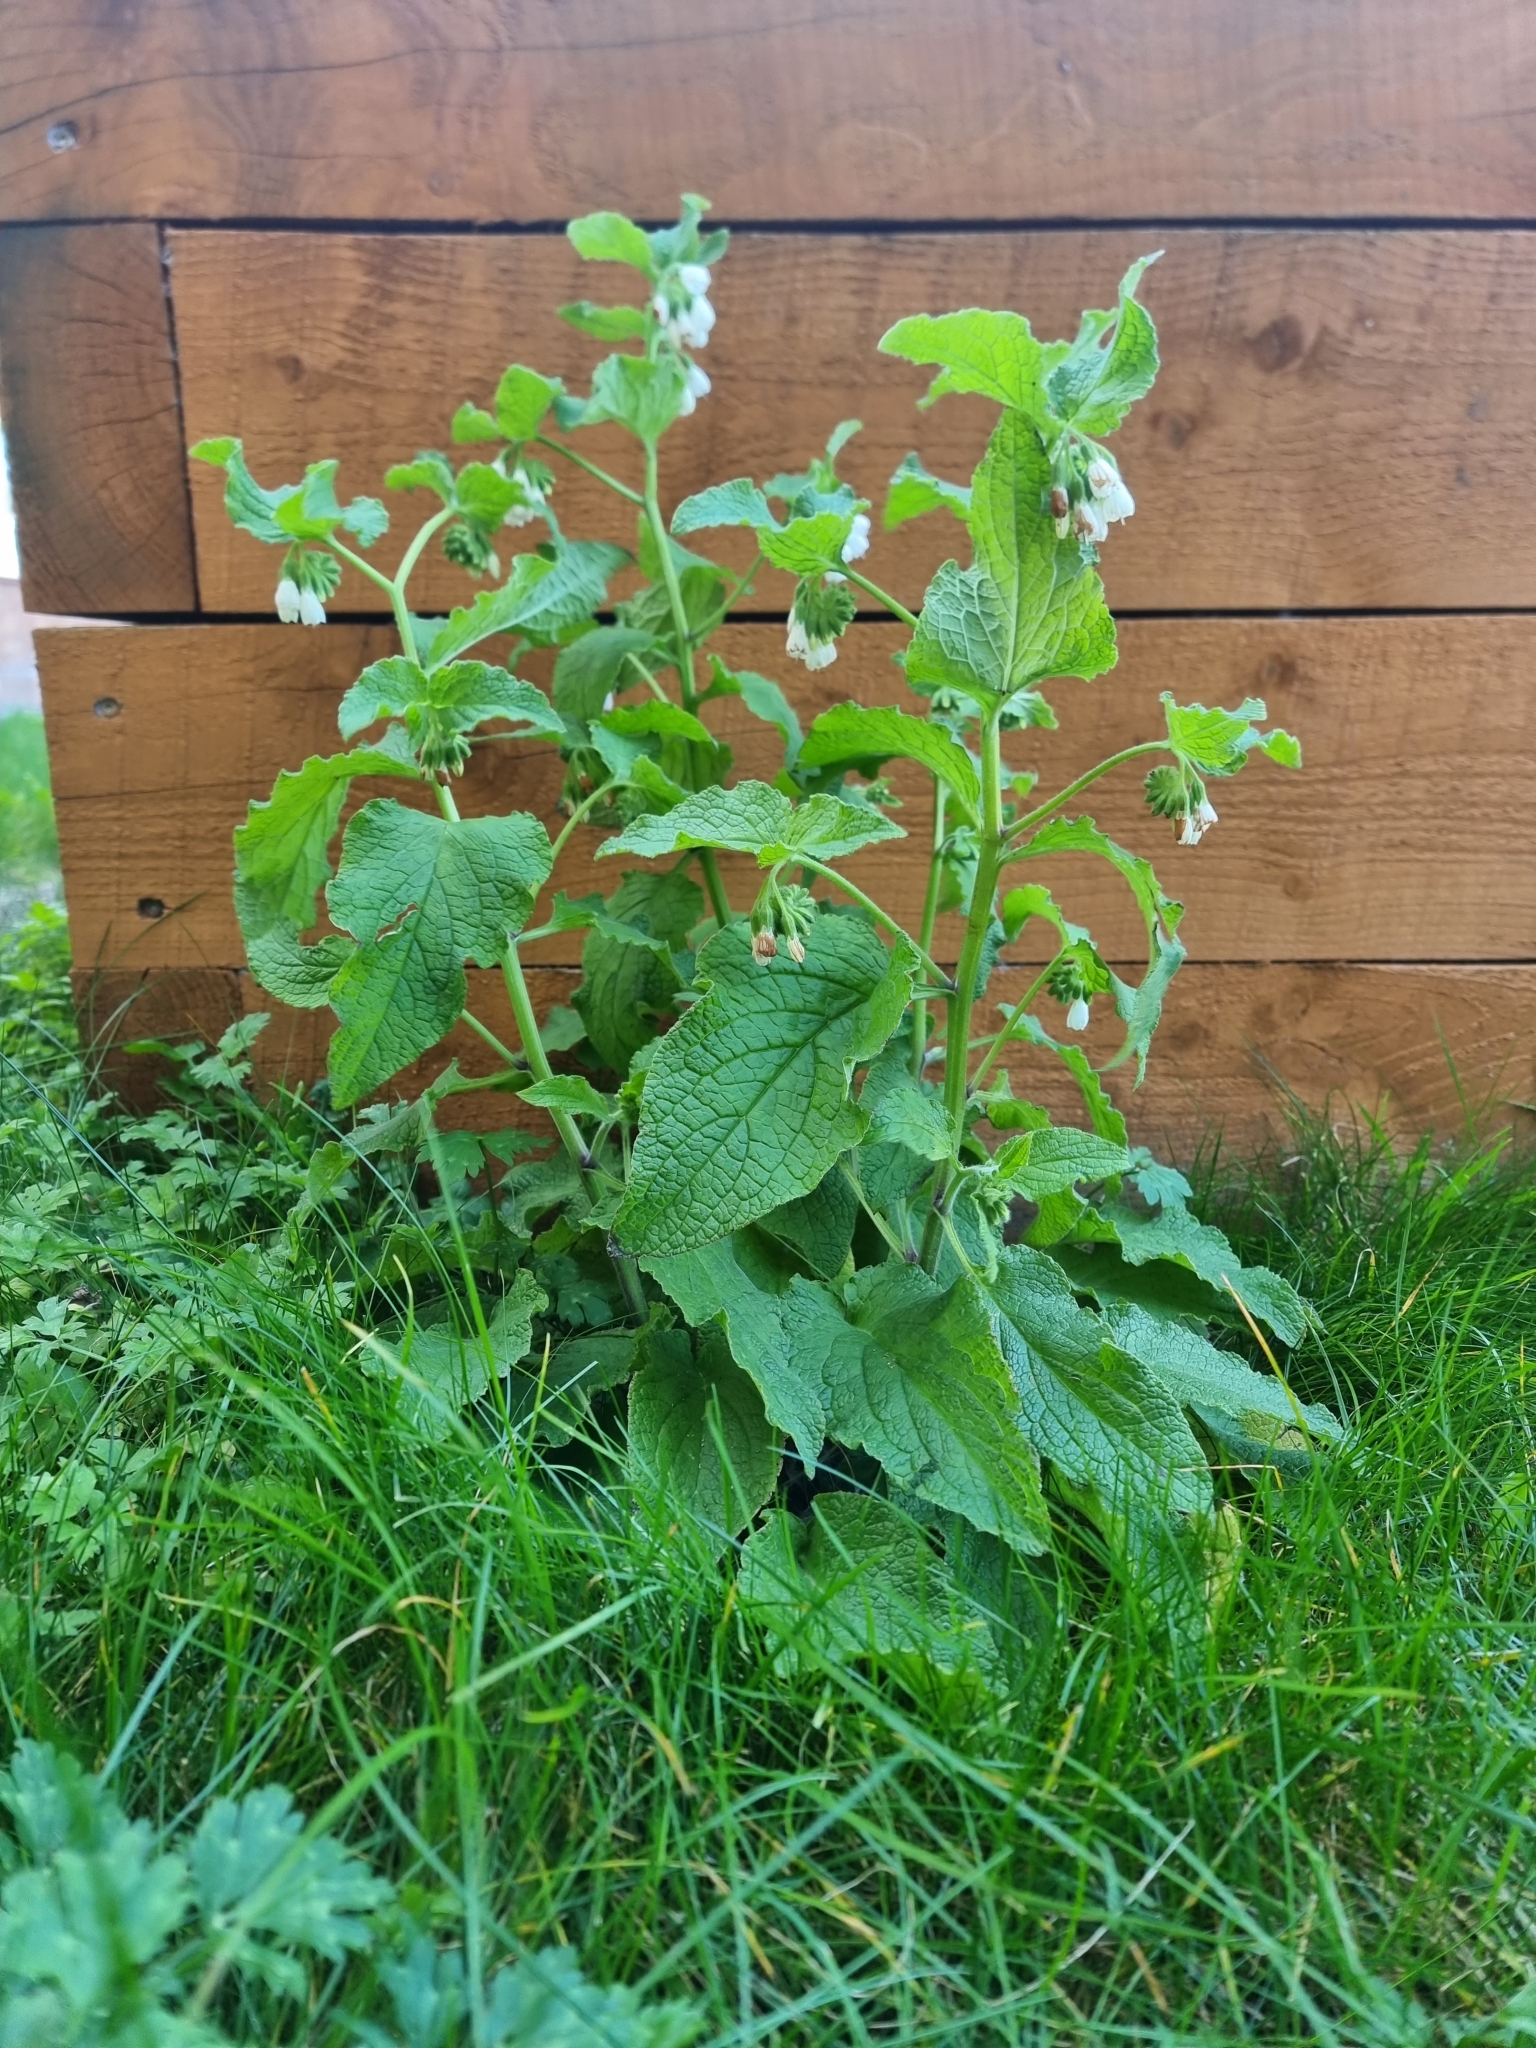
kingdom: Plantae
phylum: Tracheophyta
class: Magnoliopsida
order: Boraginales
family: Boraginaceae
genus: Symphytum
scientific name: Symphytum orientale
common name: White comfrey
